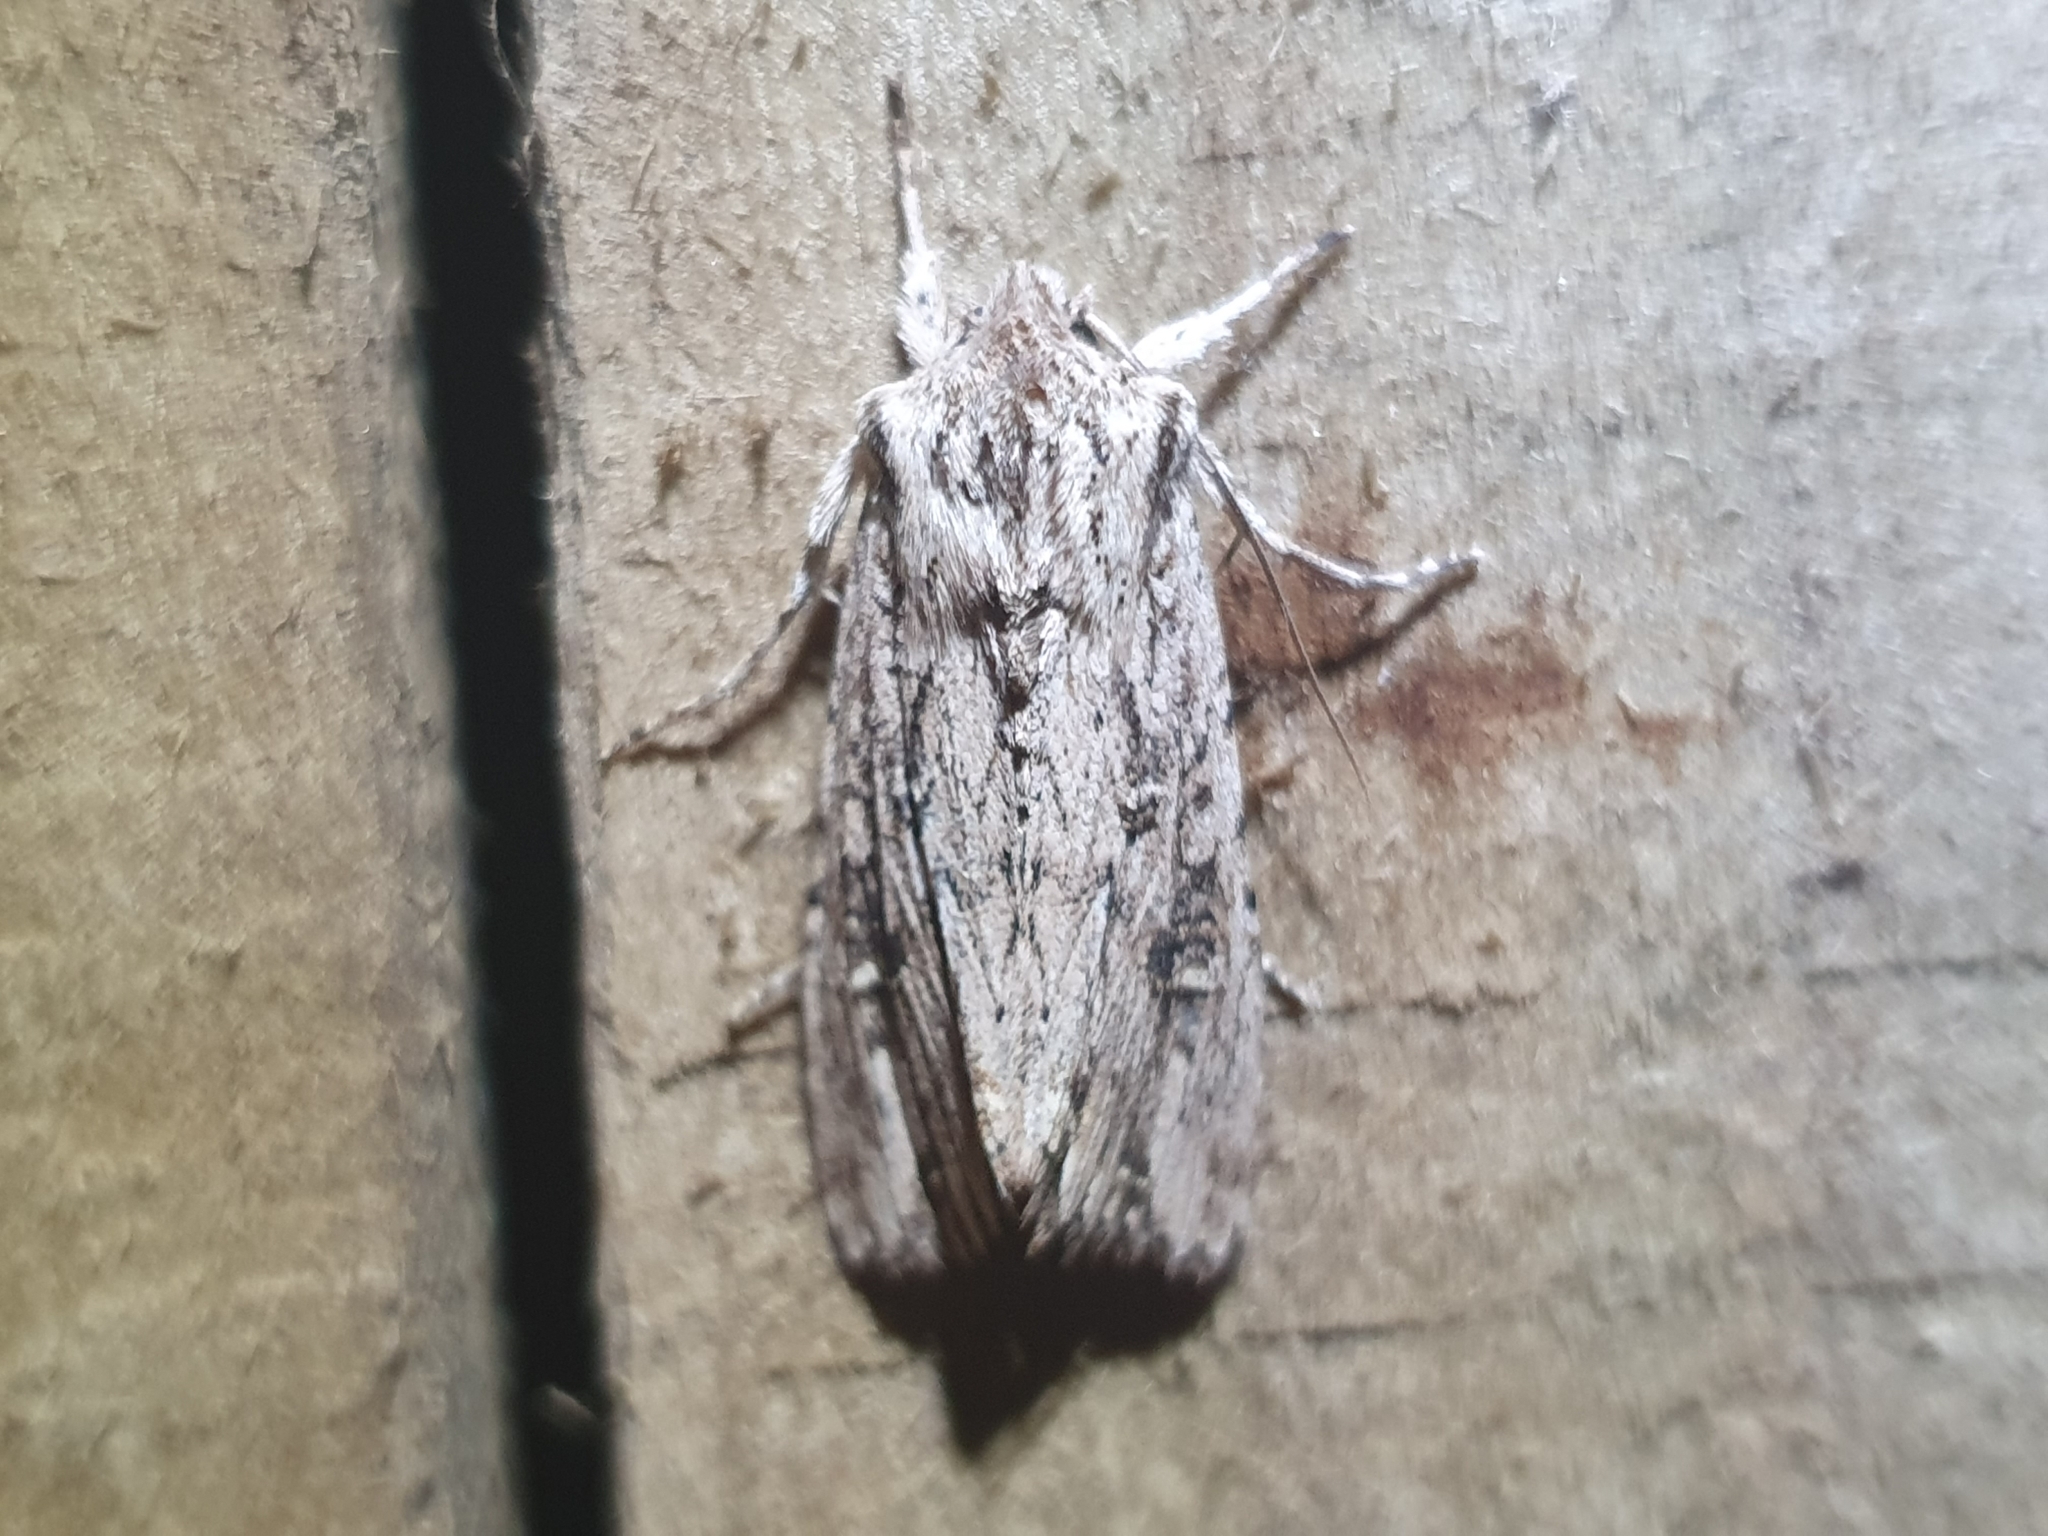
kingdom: Animalia
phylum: Arthropoda
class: Insecta
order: Lepidoptera
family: Noctuidae
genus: Ichneutica
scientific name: Ichneutica lignana
